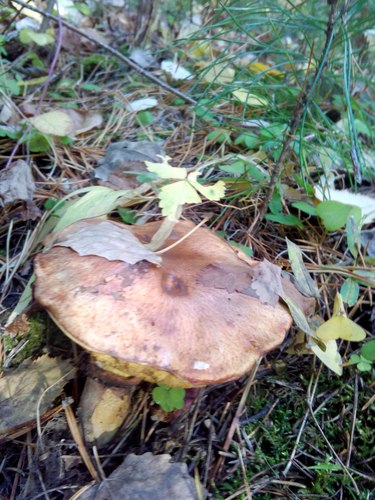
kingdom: Fungi
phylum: Basidiomycota
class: Agaricomycetes
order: Boletales
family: Suillaceae
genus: Suillus
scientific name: Suillus luteus
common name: Slippery jack
